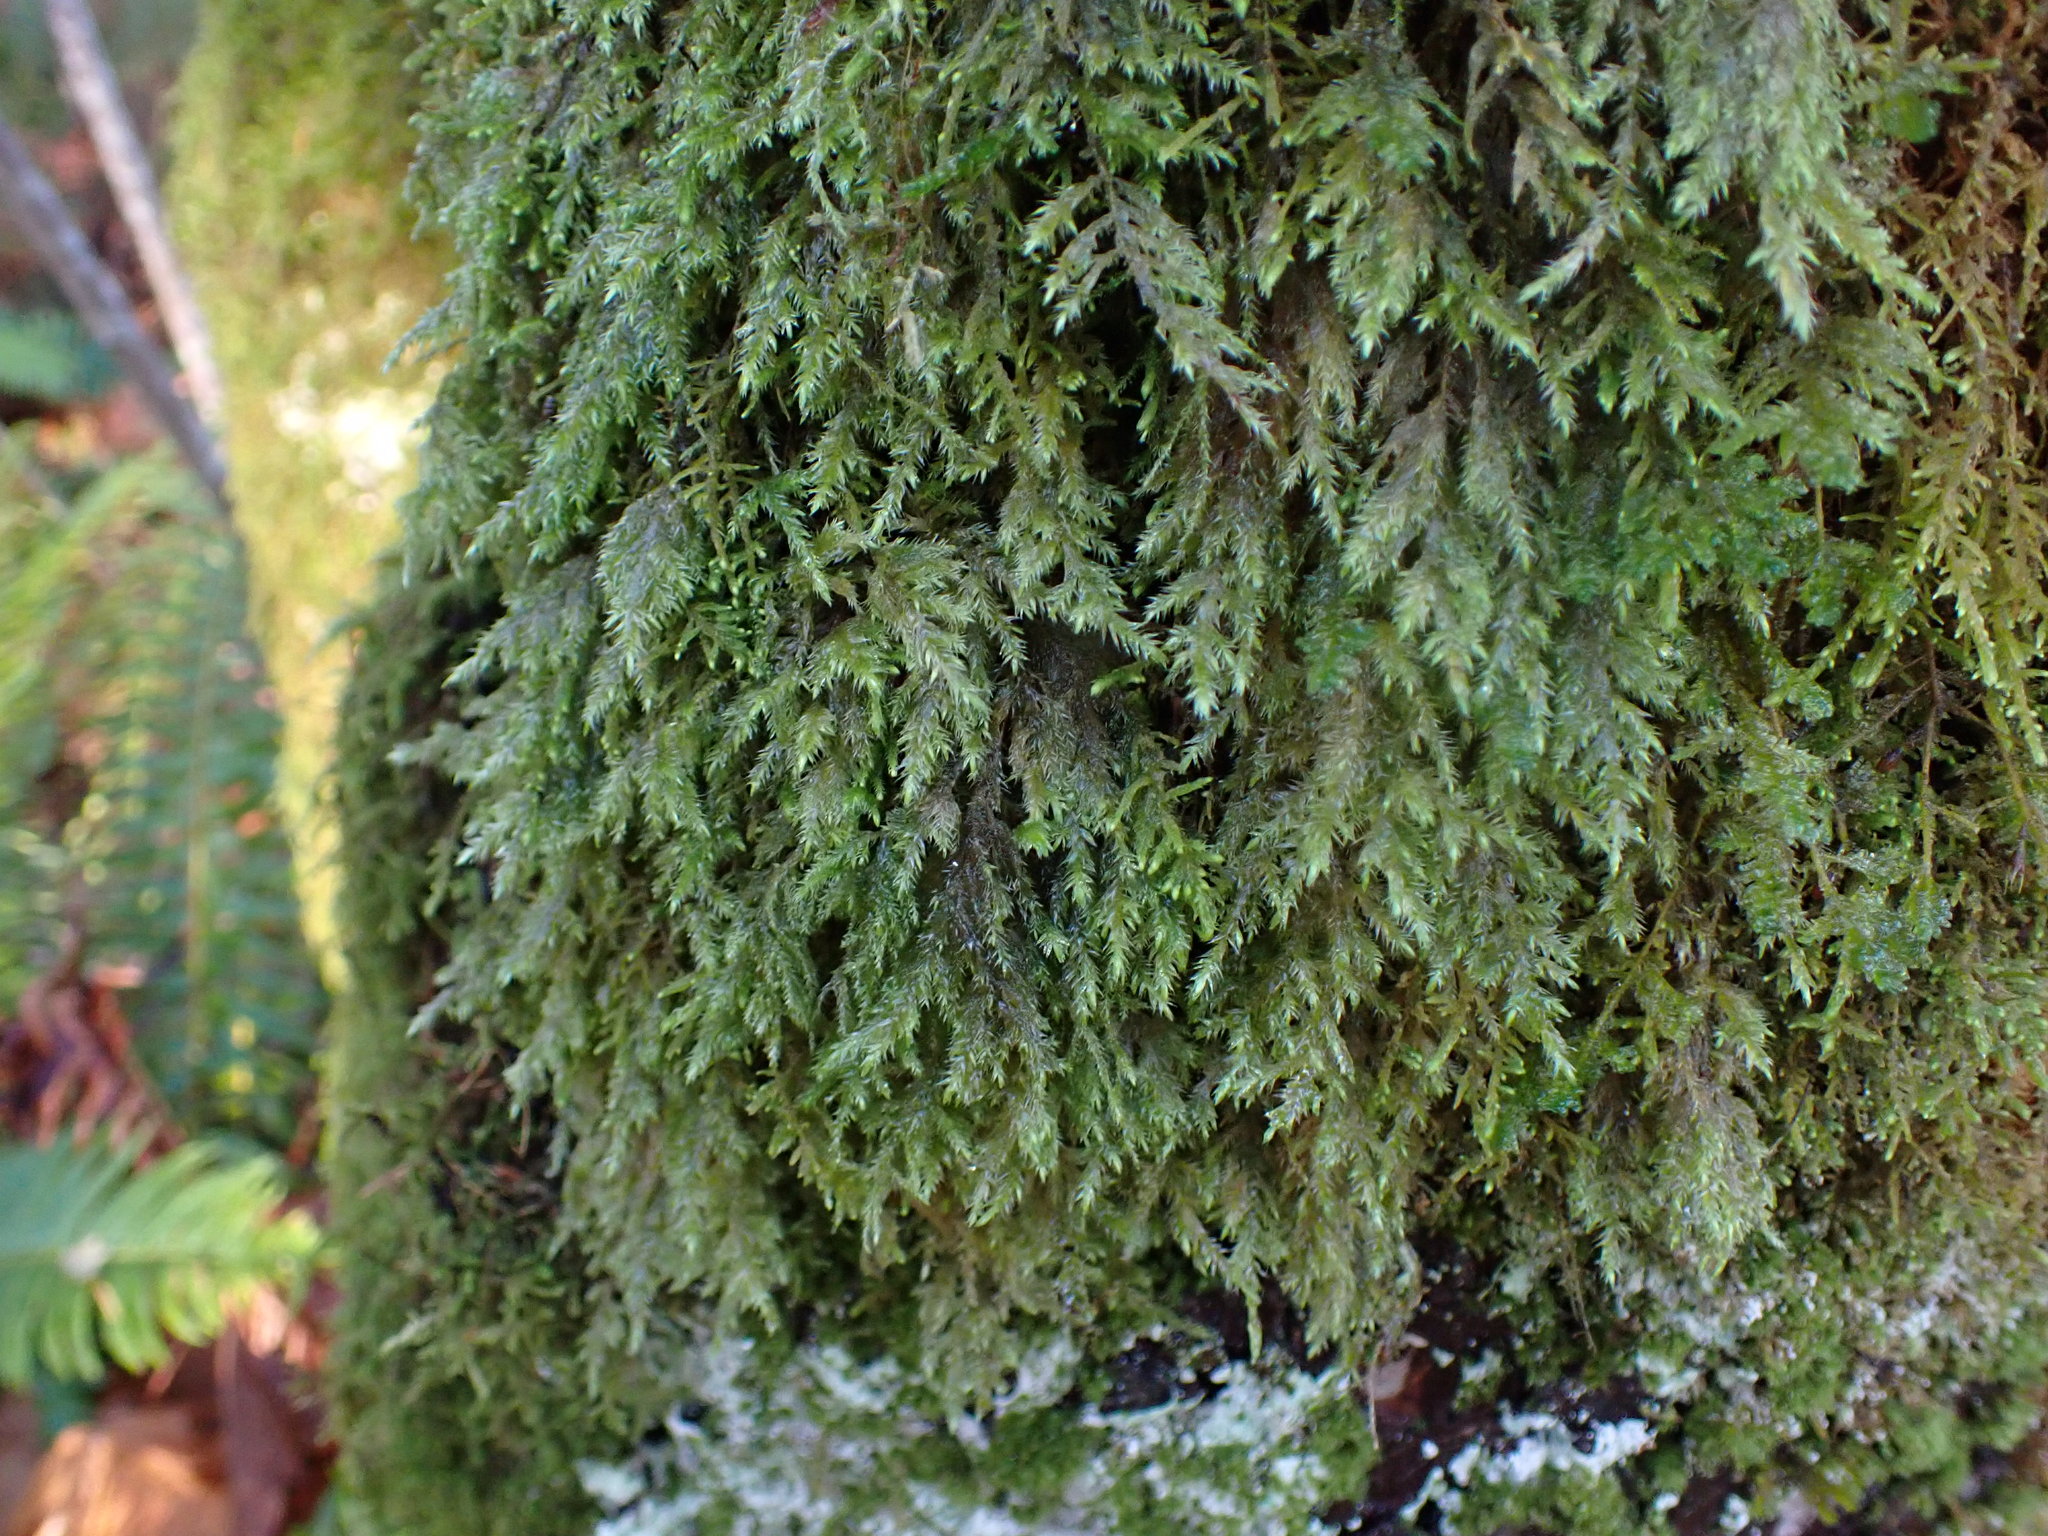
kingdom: Plantae
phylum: Bryophyta
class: Bryopsida
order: Hypnales
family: Lembophyllaceae
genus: Pseudisothecium
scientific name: Pseudisothecium stoloniferum
